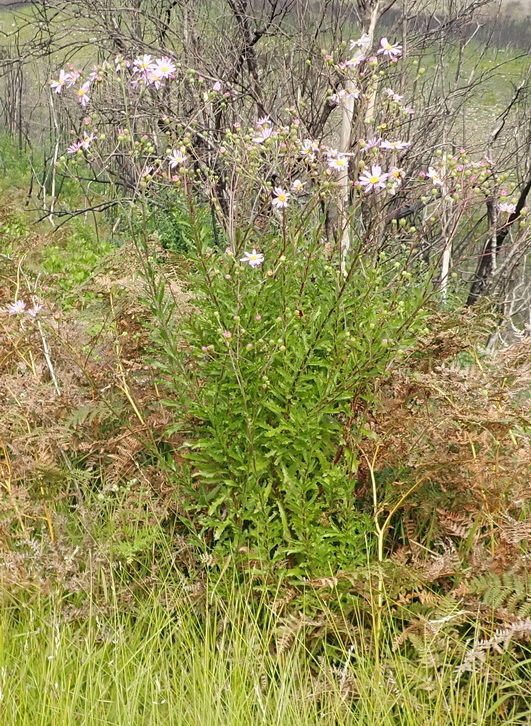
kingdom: Plantae
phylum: Tracheophyta
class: Magnoliopsida
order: Asterales
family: Asteraceae
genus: Senecio
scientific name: Senecio glastifolius
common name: Woad-leaved ragwort
